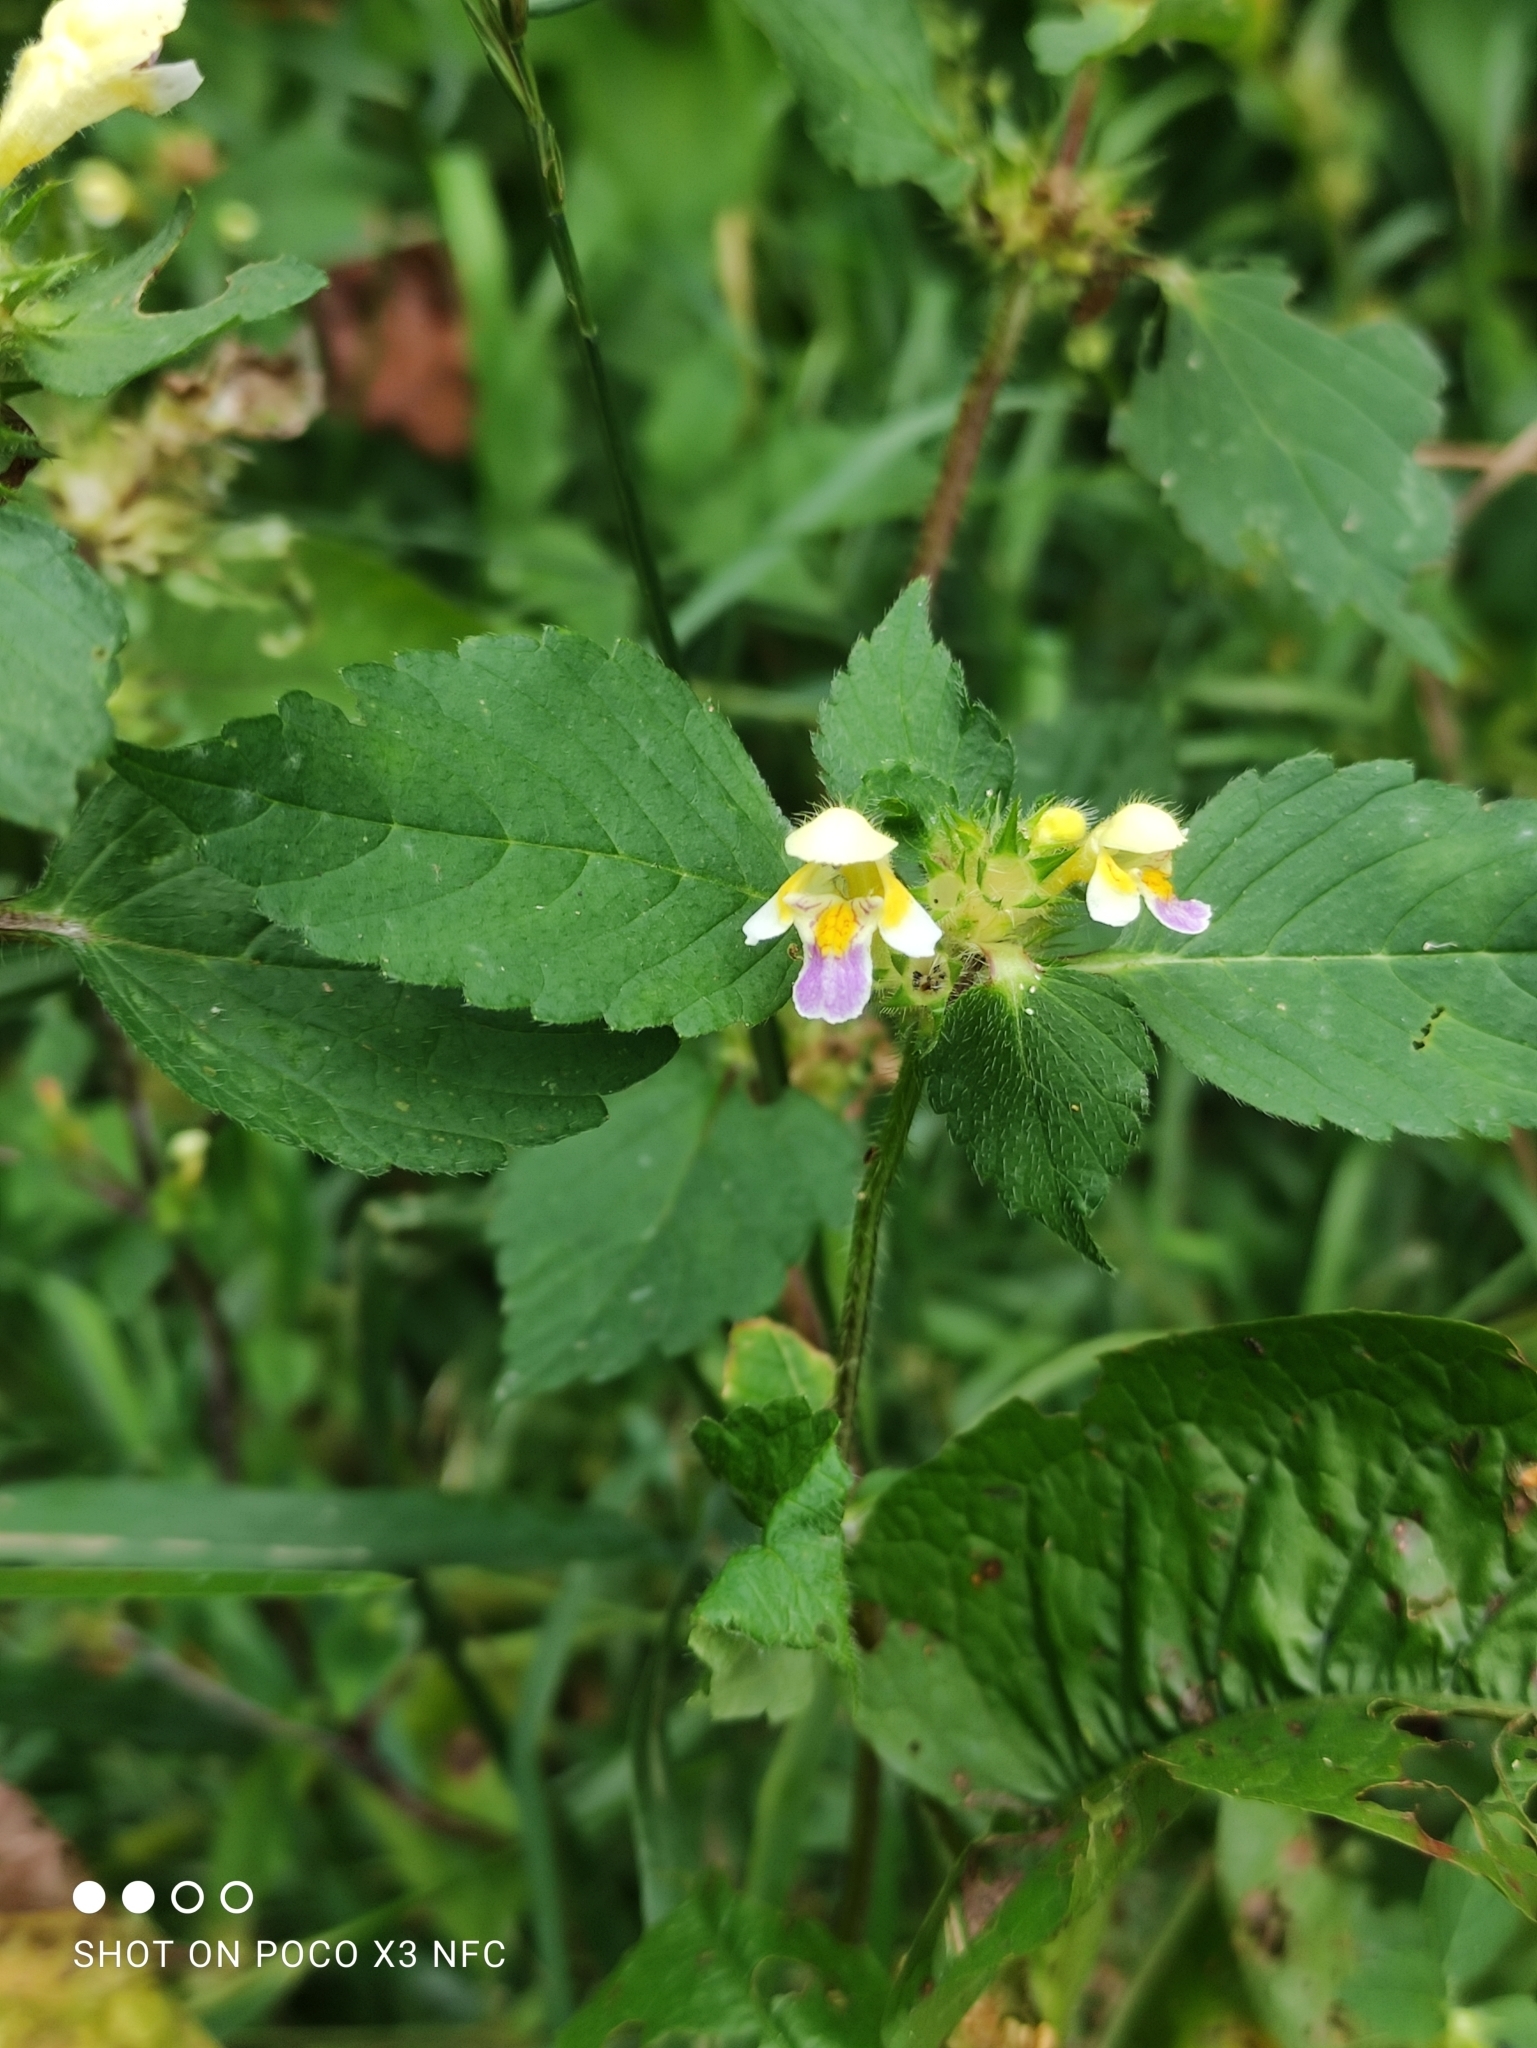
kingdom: Plantae
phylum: Tracheophyta
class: Magnoliopsida
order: Lamiales
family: Lamiaceae
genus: Galeopsis
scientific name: Galeopsis speciosa
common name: Large-flowered hemp-nettle
